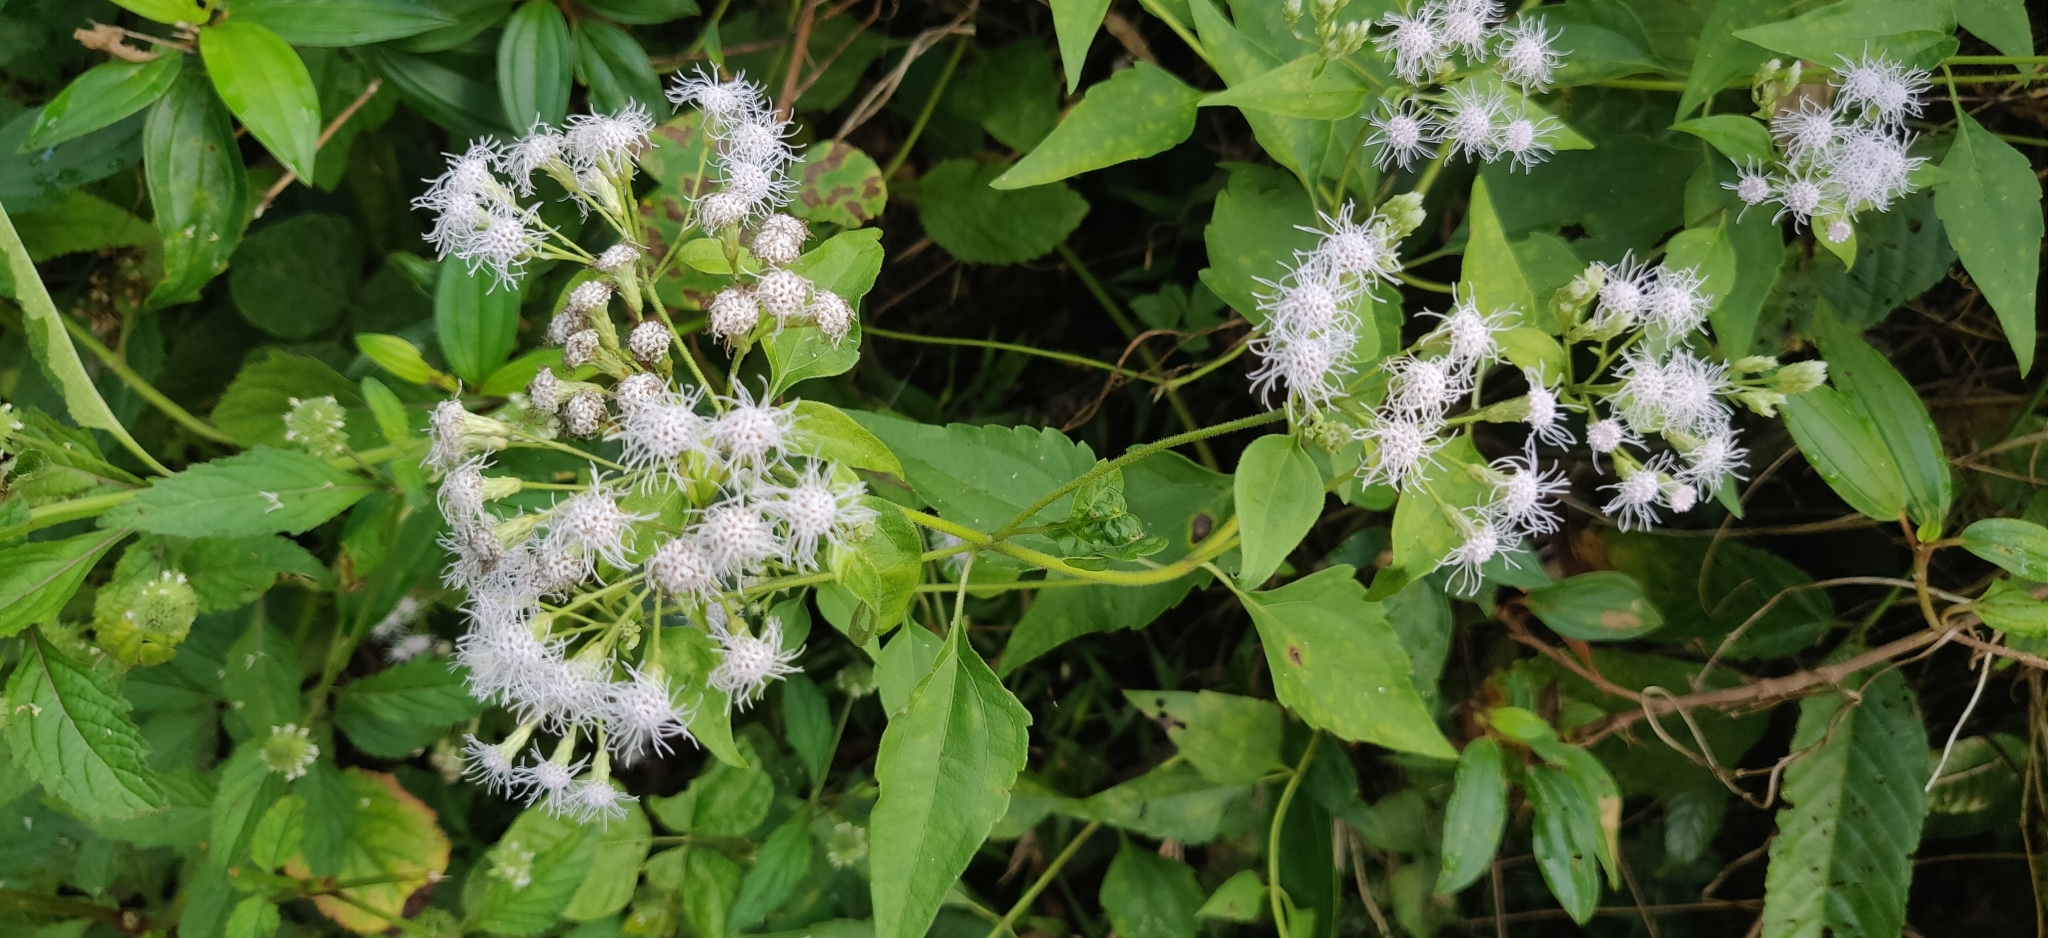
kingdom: Plantae
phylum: Tracheophyta
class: Magnoliopsida
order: Asterales
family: Asteraceae
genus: Chromolaena
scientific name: Chromolaena odorata
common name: Siamweed
